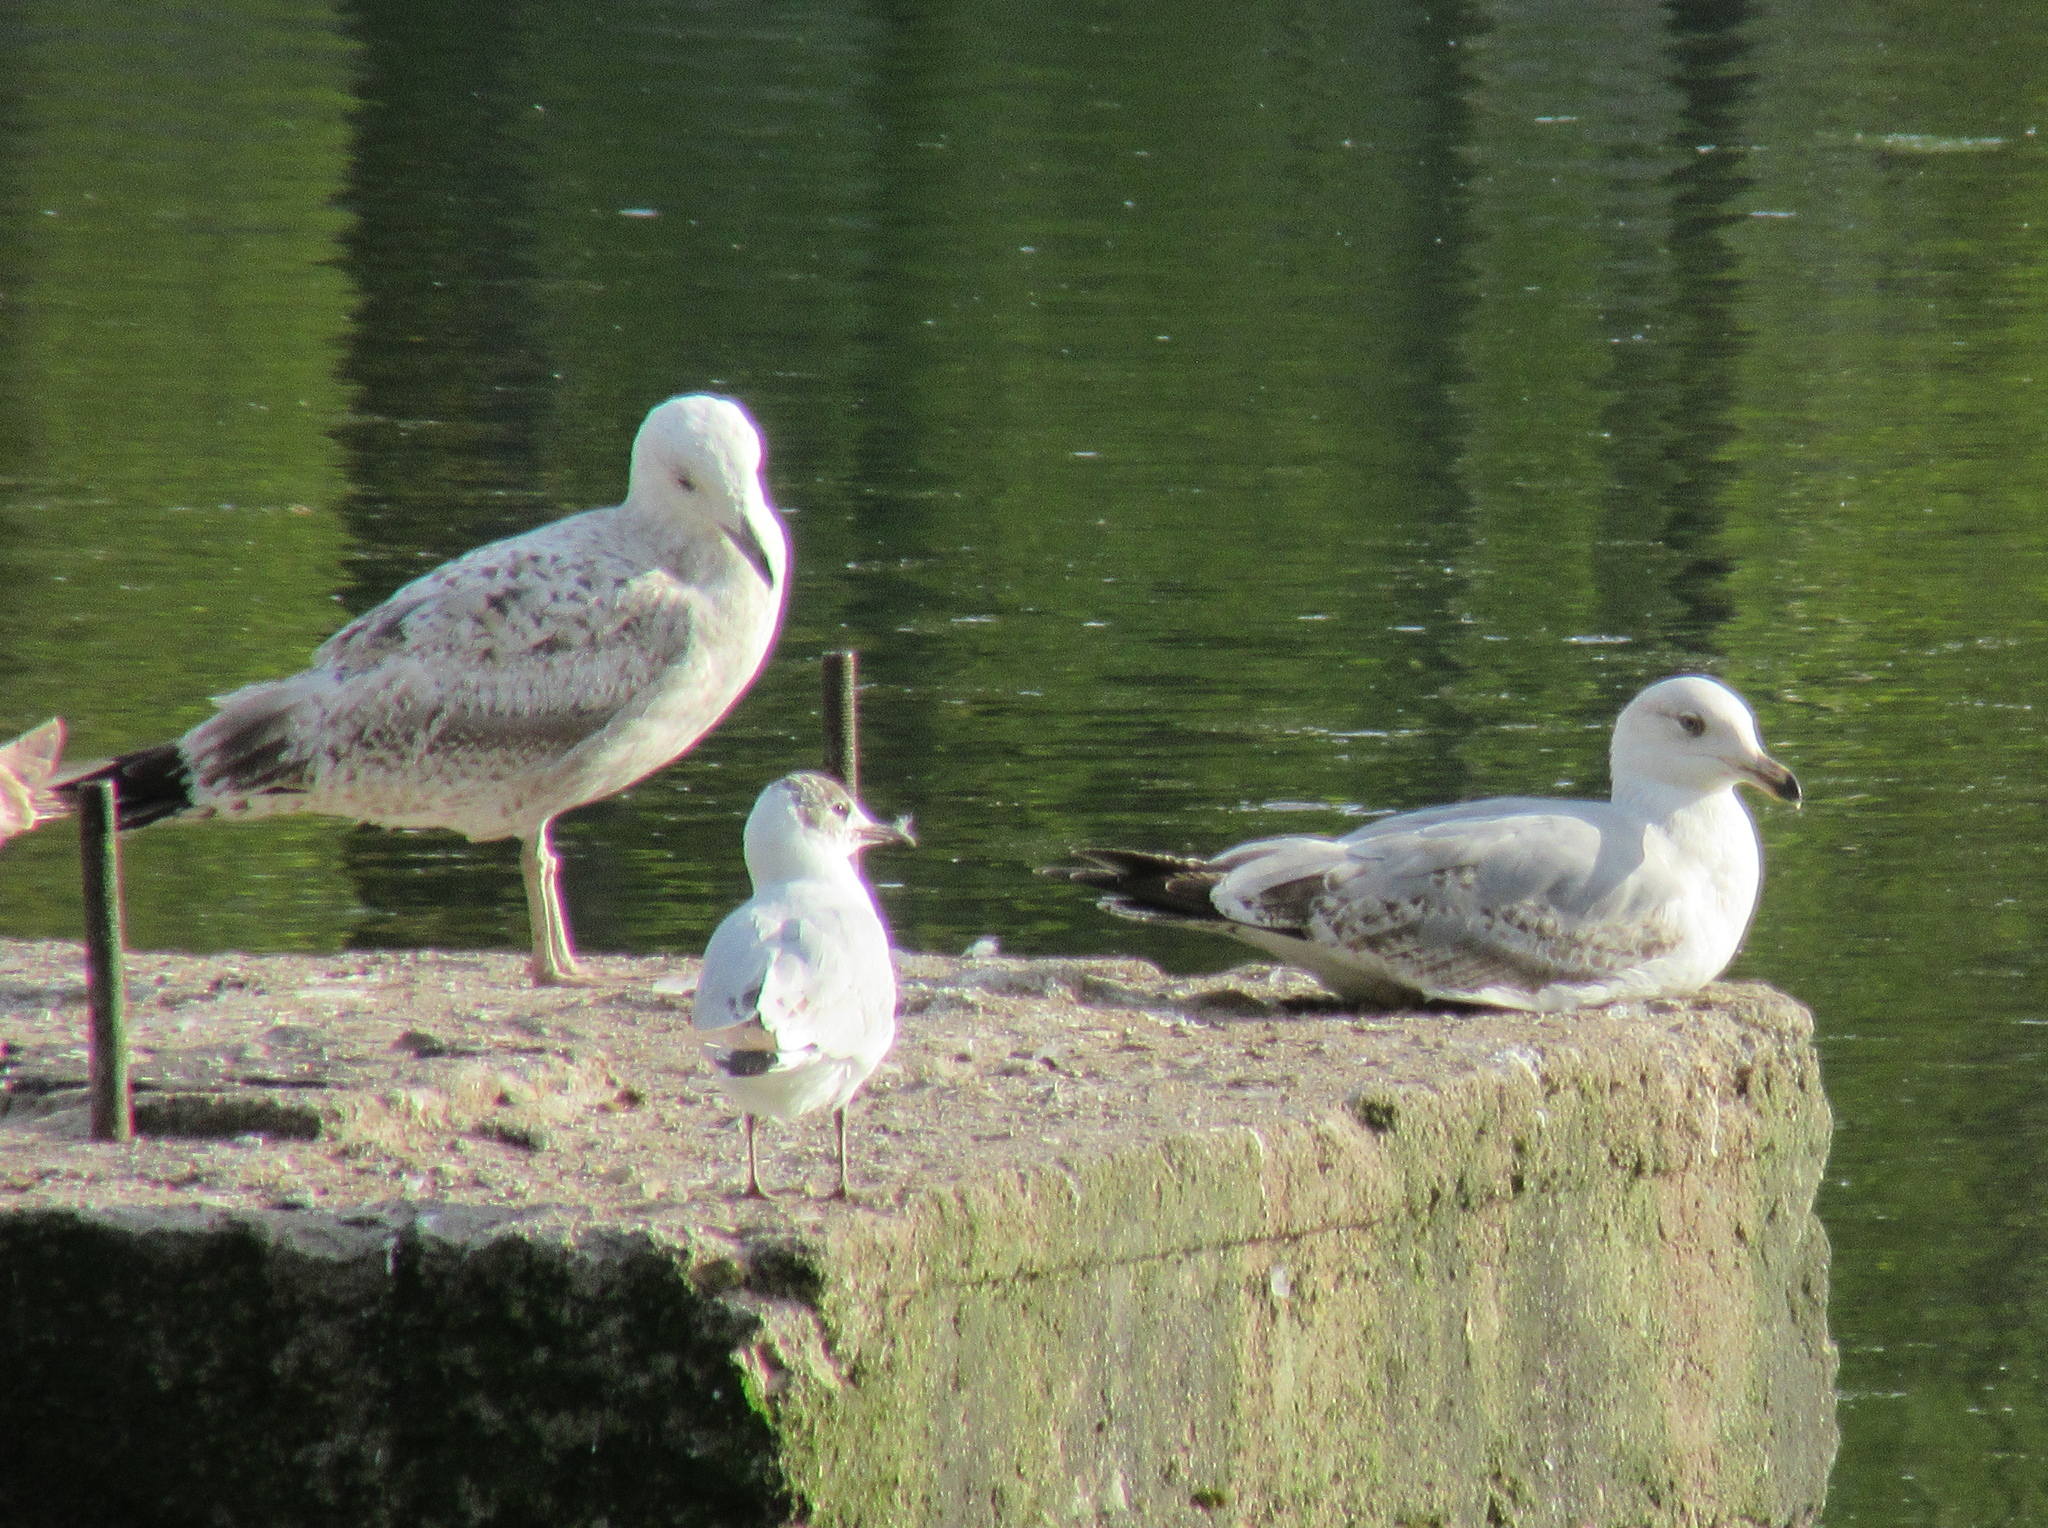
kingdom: Animalia
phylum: Chordata
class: Aves
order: Charadriiformes
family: Laridae
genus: Larus
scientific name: Larus argentatus
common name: Herring gull
